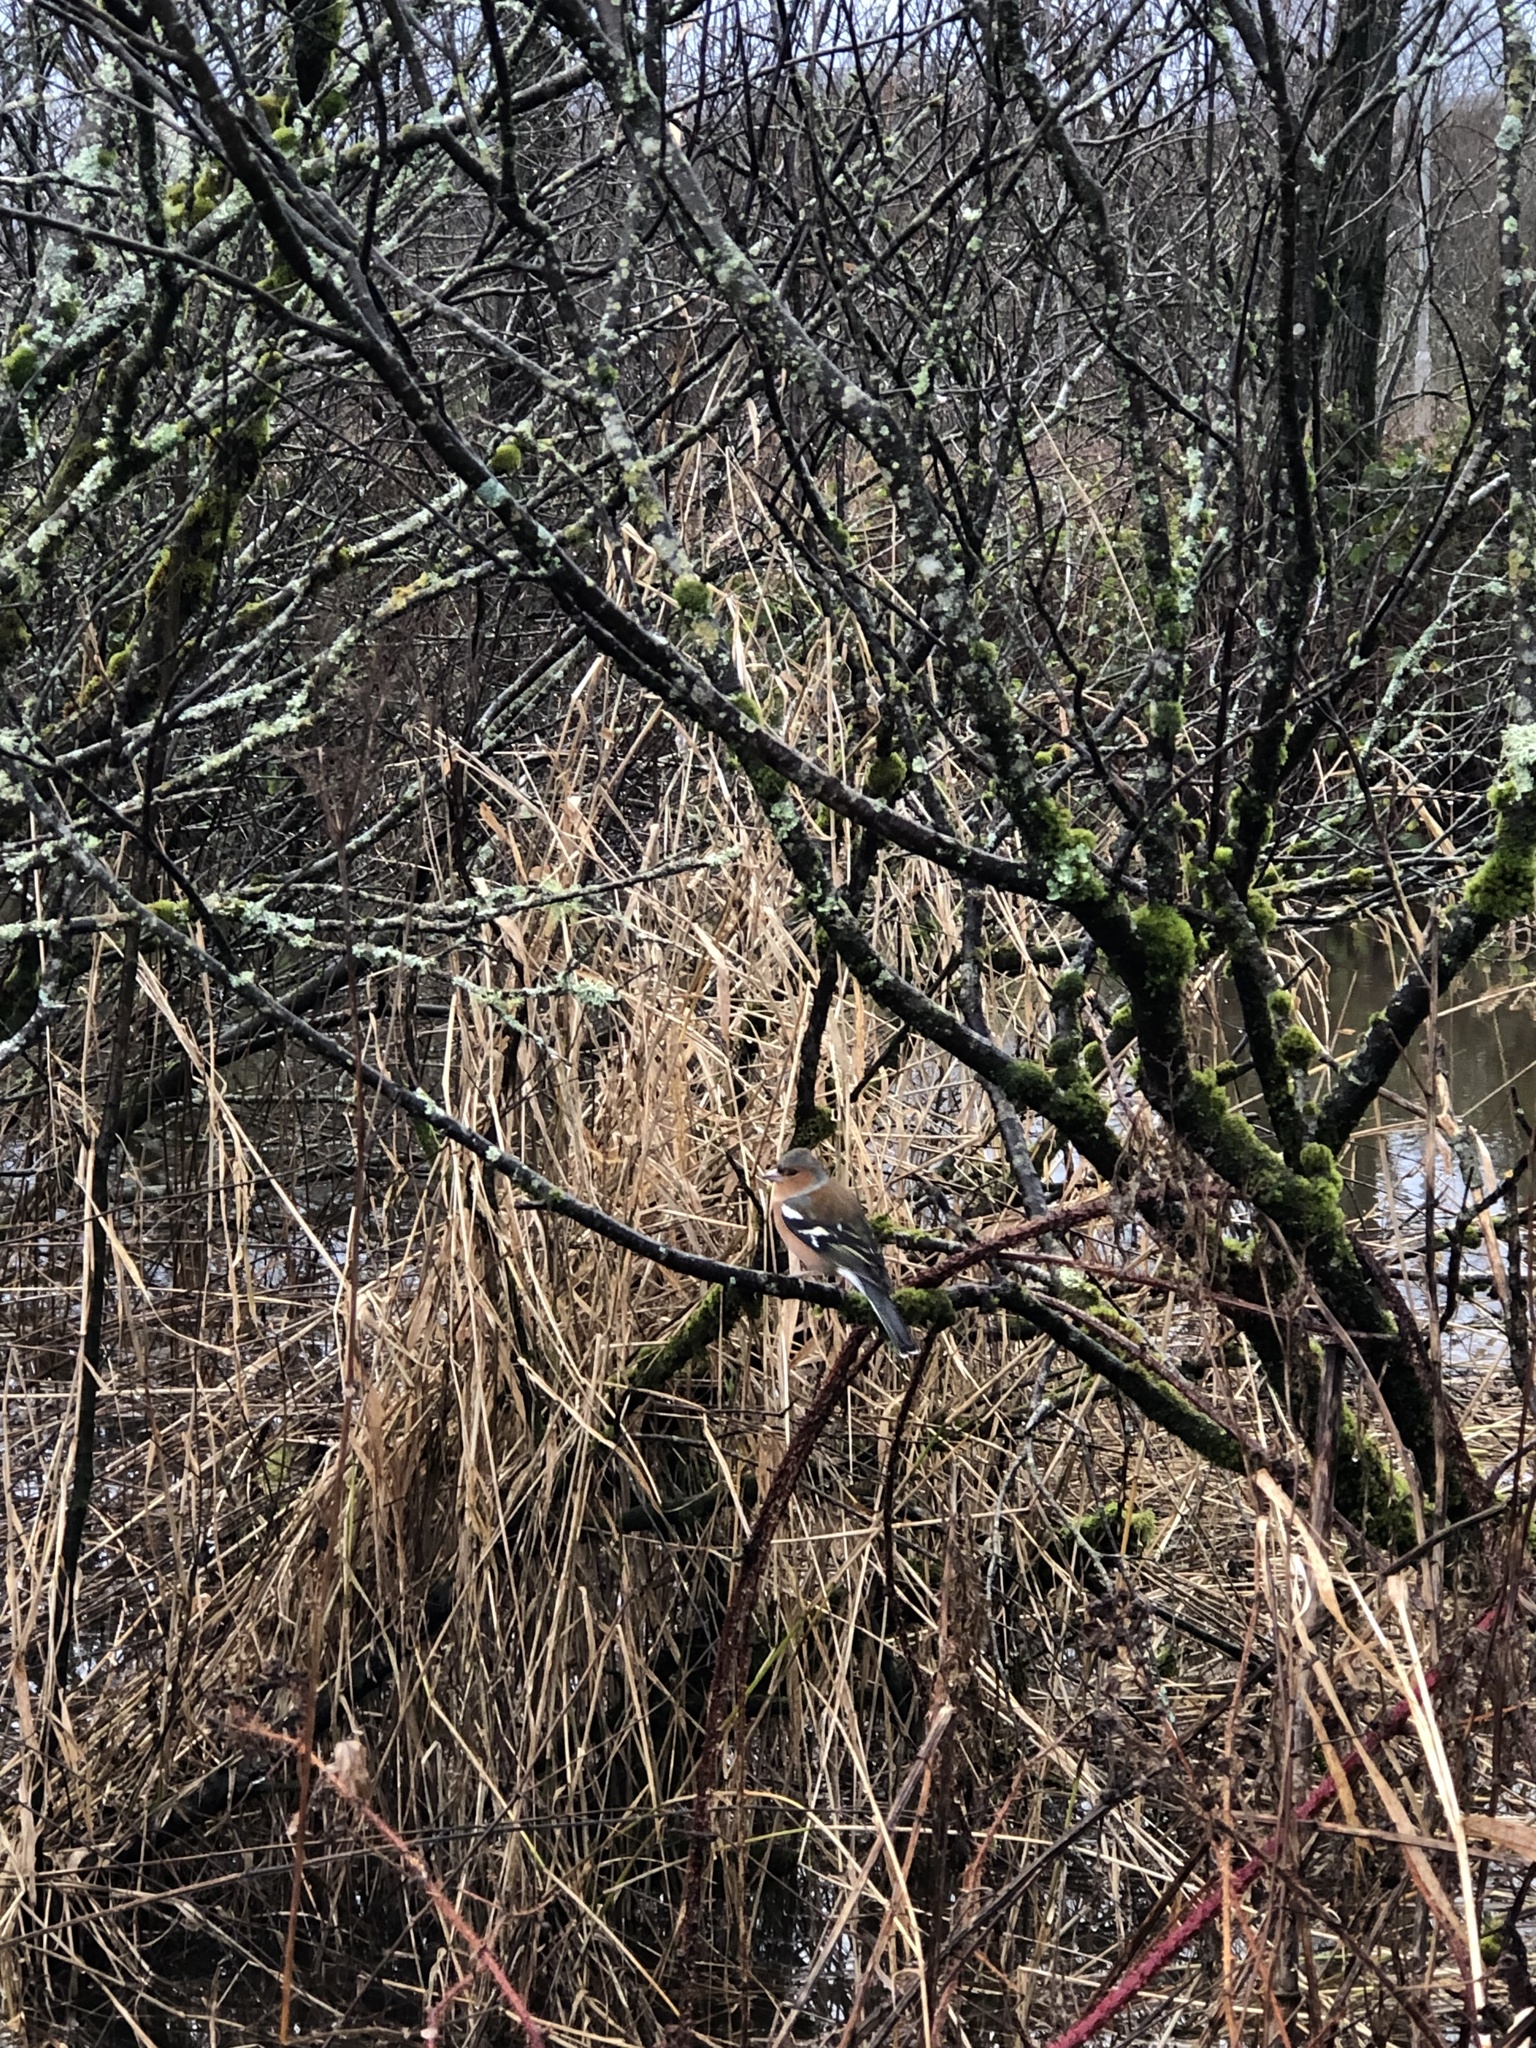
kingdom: Animalia
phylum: Chordata
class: Aves
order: Passeriformes
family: Fringillidae
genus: Fringilla
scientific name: Fringilla coelebs
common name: Common chaffinch
